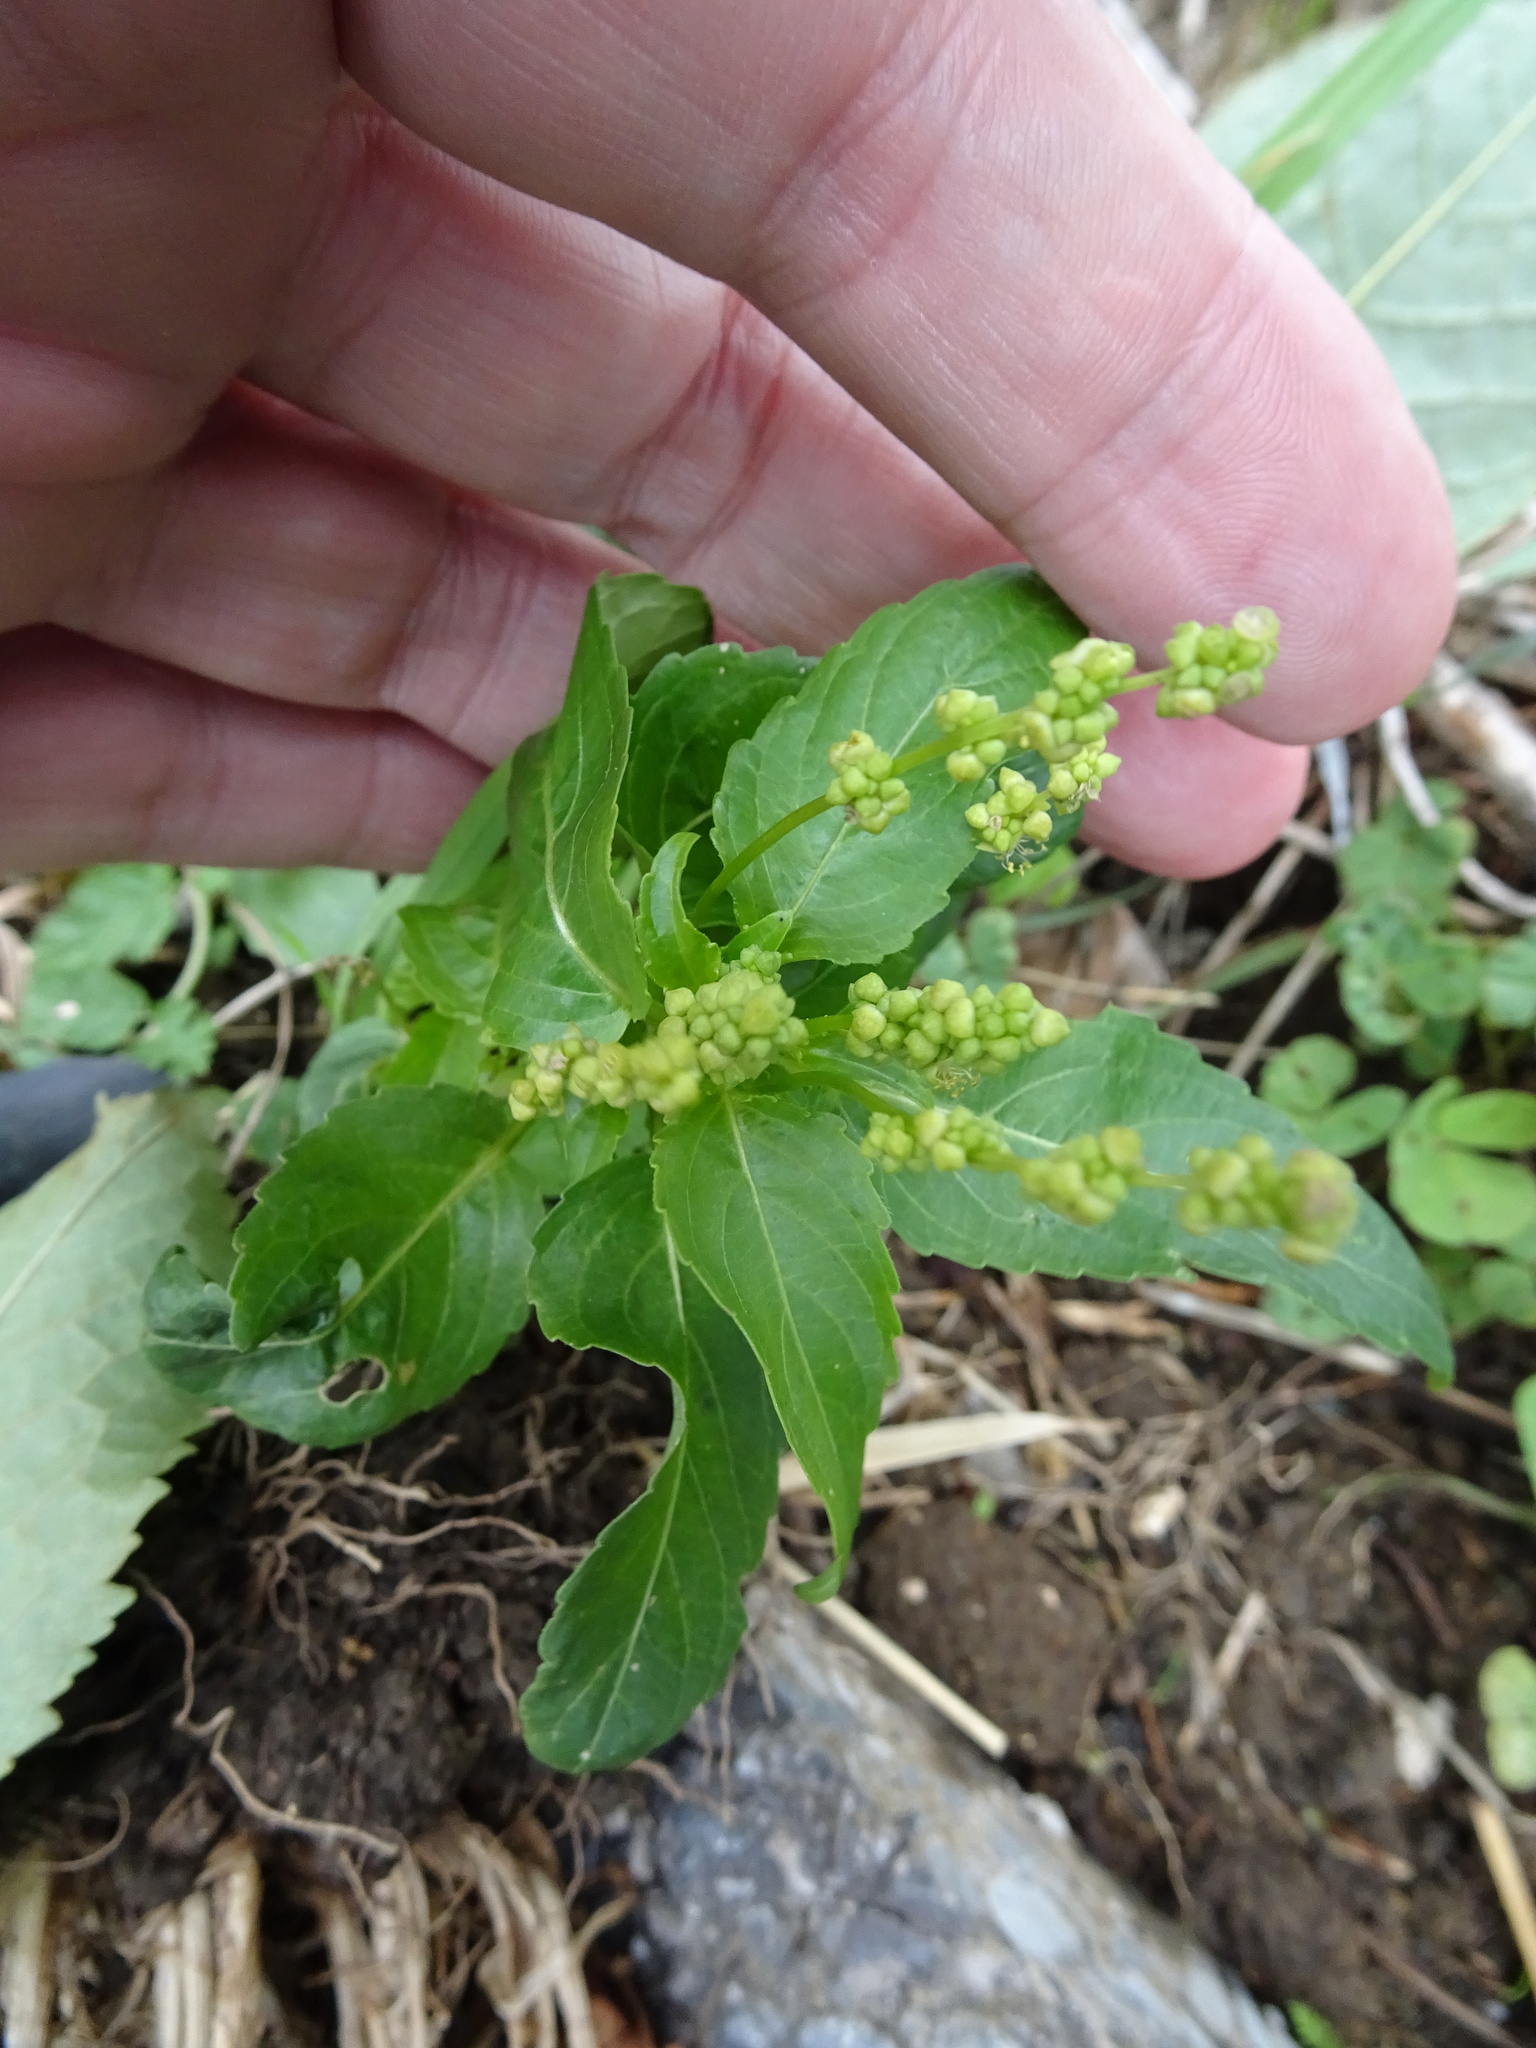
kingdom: Plantae
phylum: Tracheophyta
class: Magnoliopsida
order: Malpighiales
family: Euphorbiaceae
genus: Mercurialis
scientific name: Mercurialis annua
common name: Annual mercury
